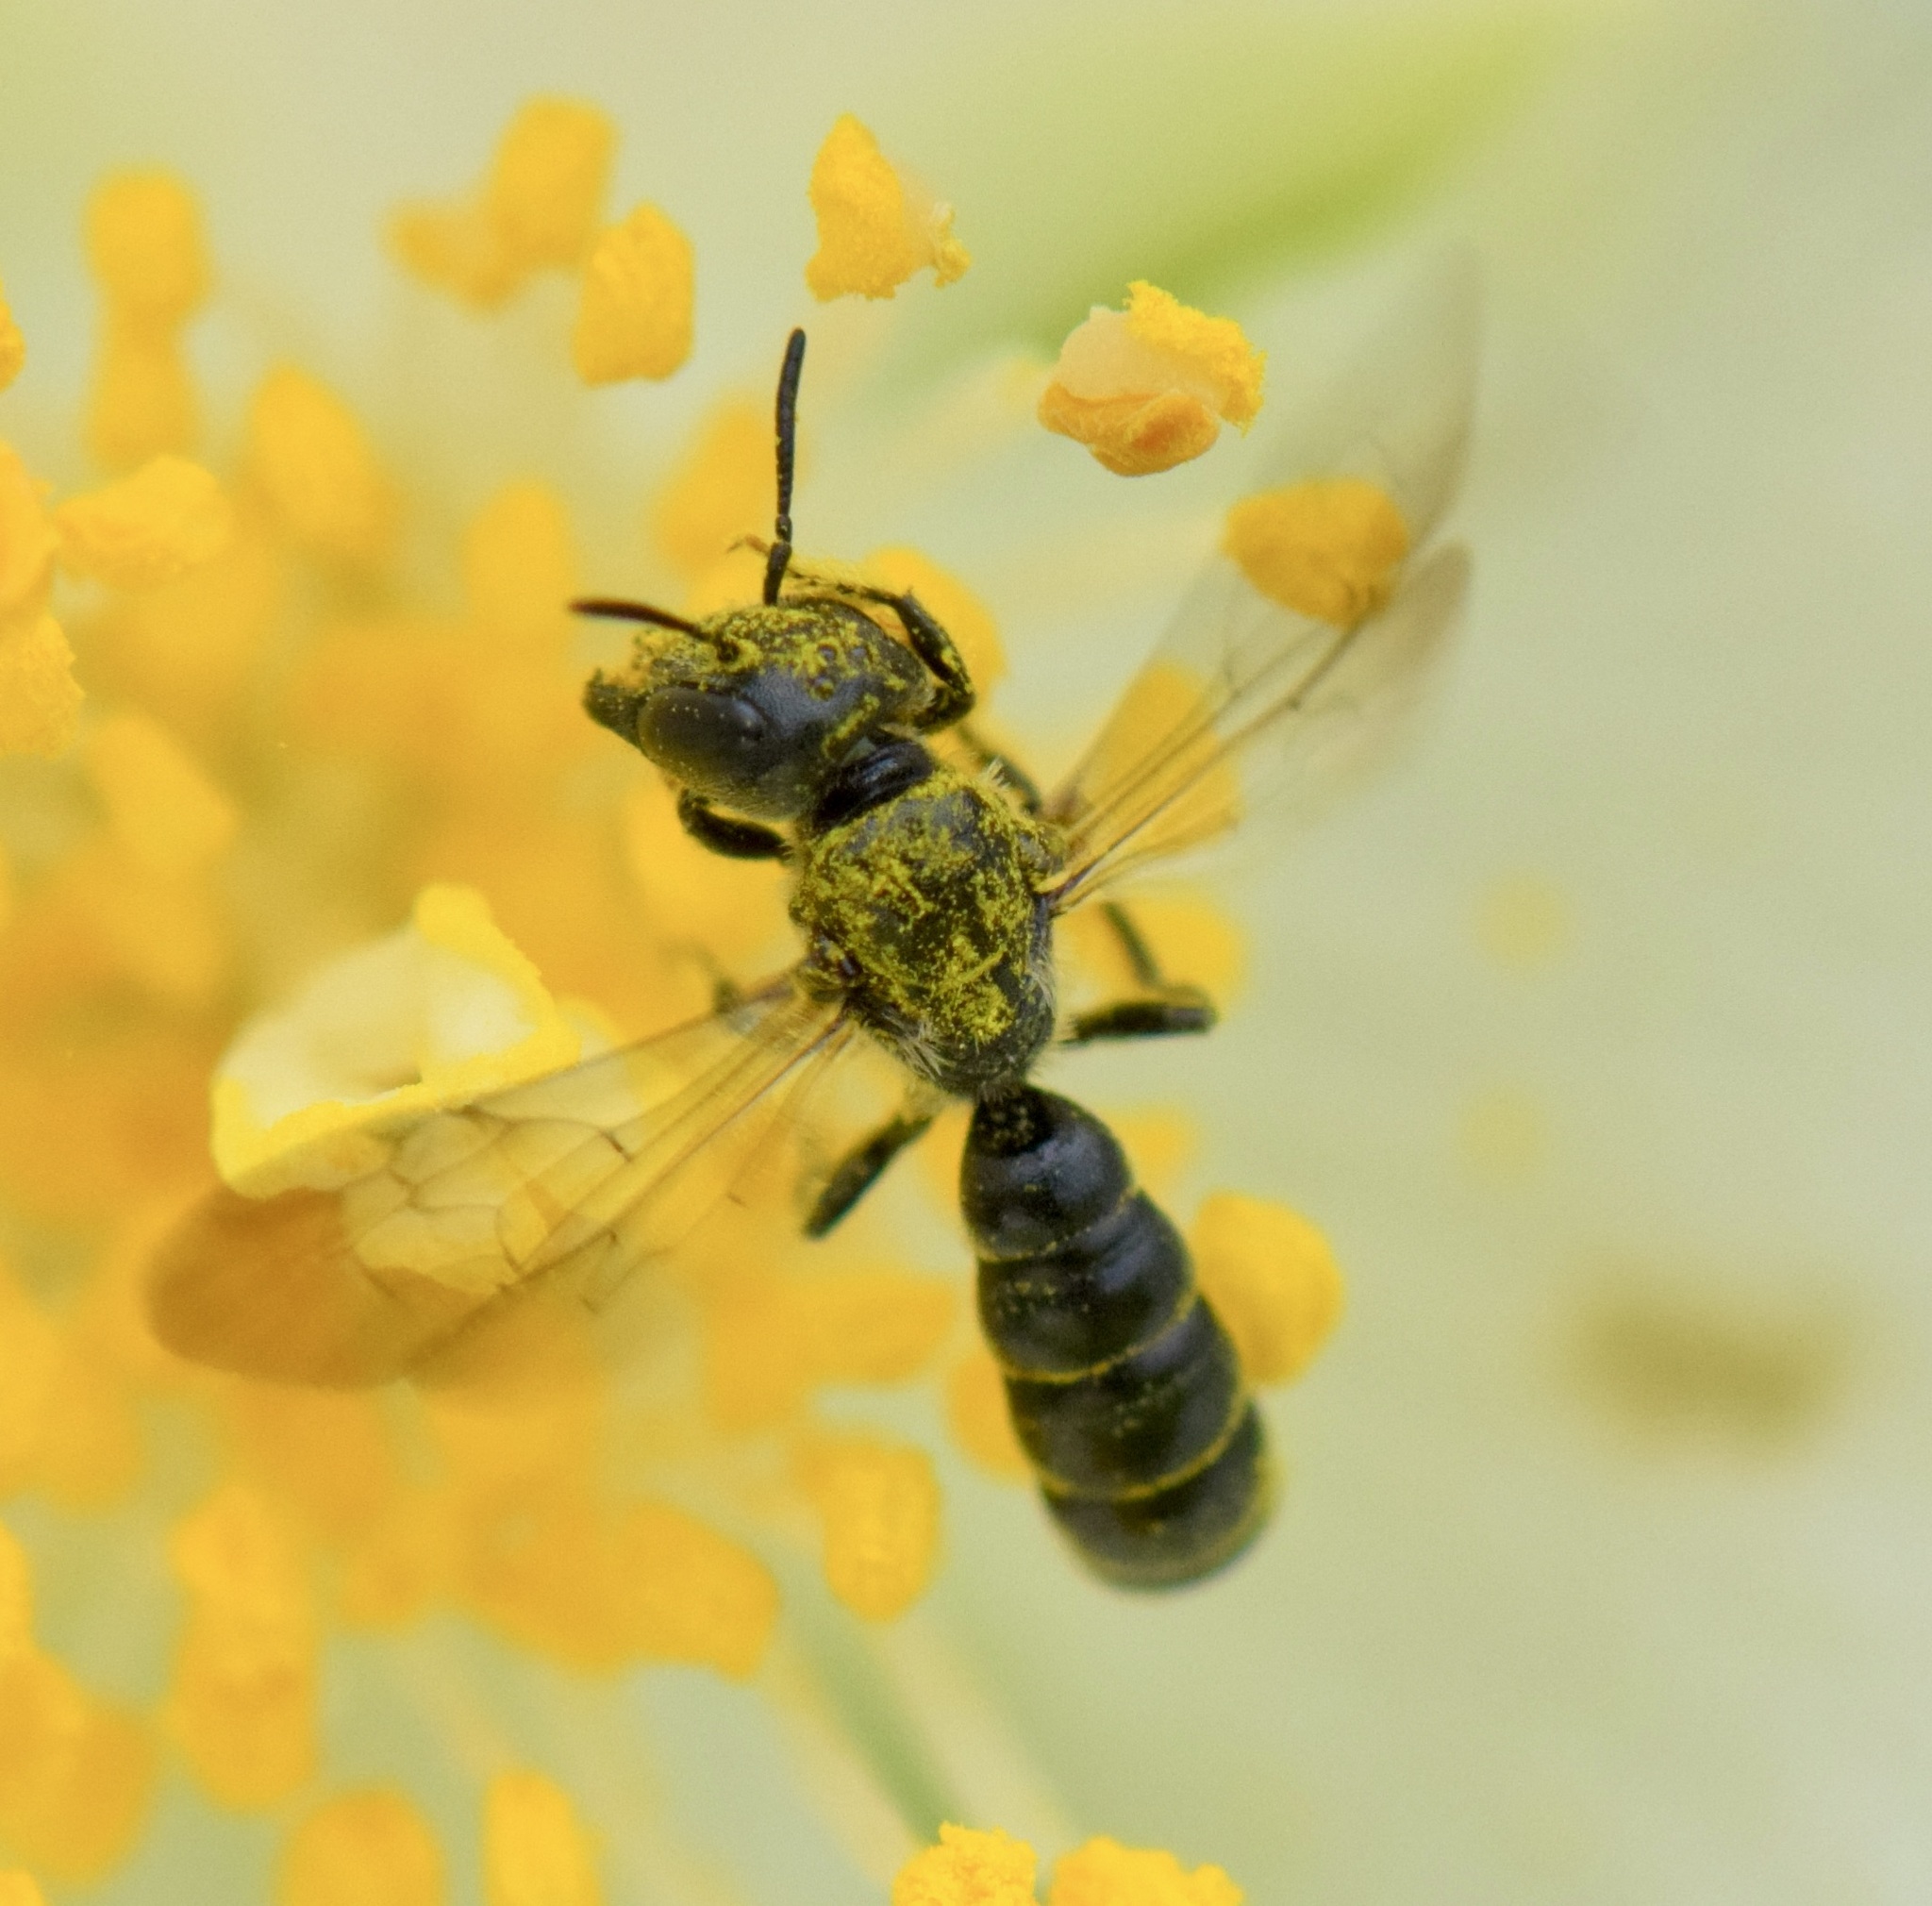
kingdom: Animalia
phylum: Arthropoda
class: Insecta
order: Hymenoptera
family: Megachilidae
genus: Chelostoma
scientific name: Chelostoma philadelphi
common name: Mock-orange scissor bee
